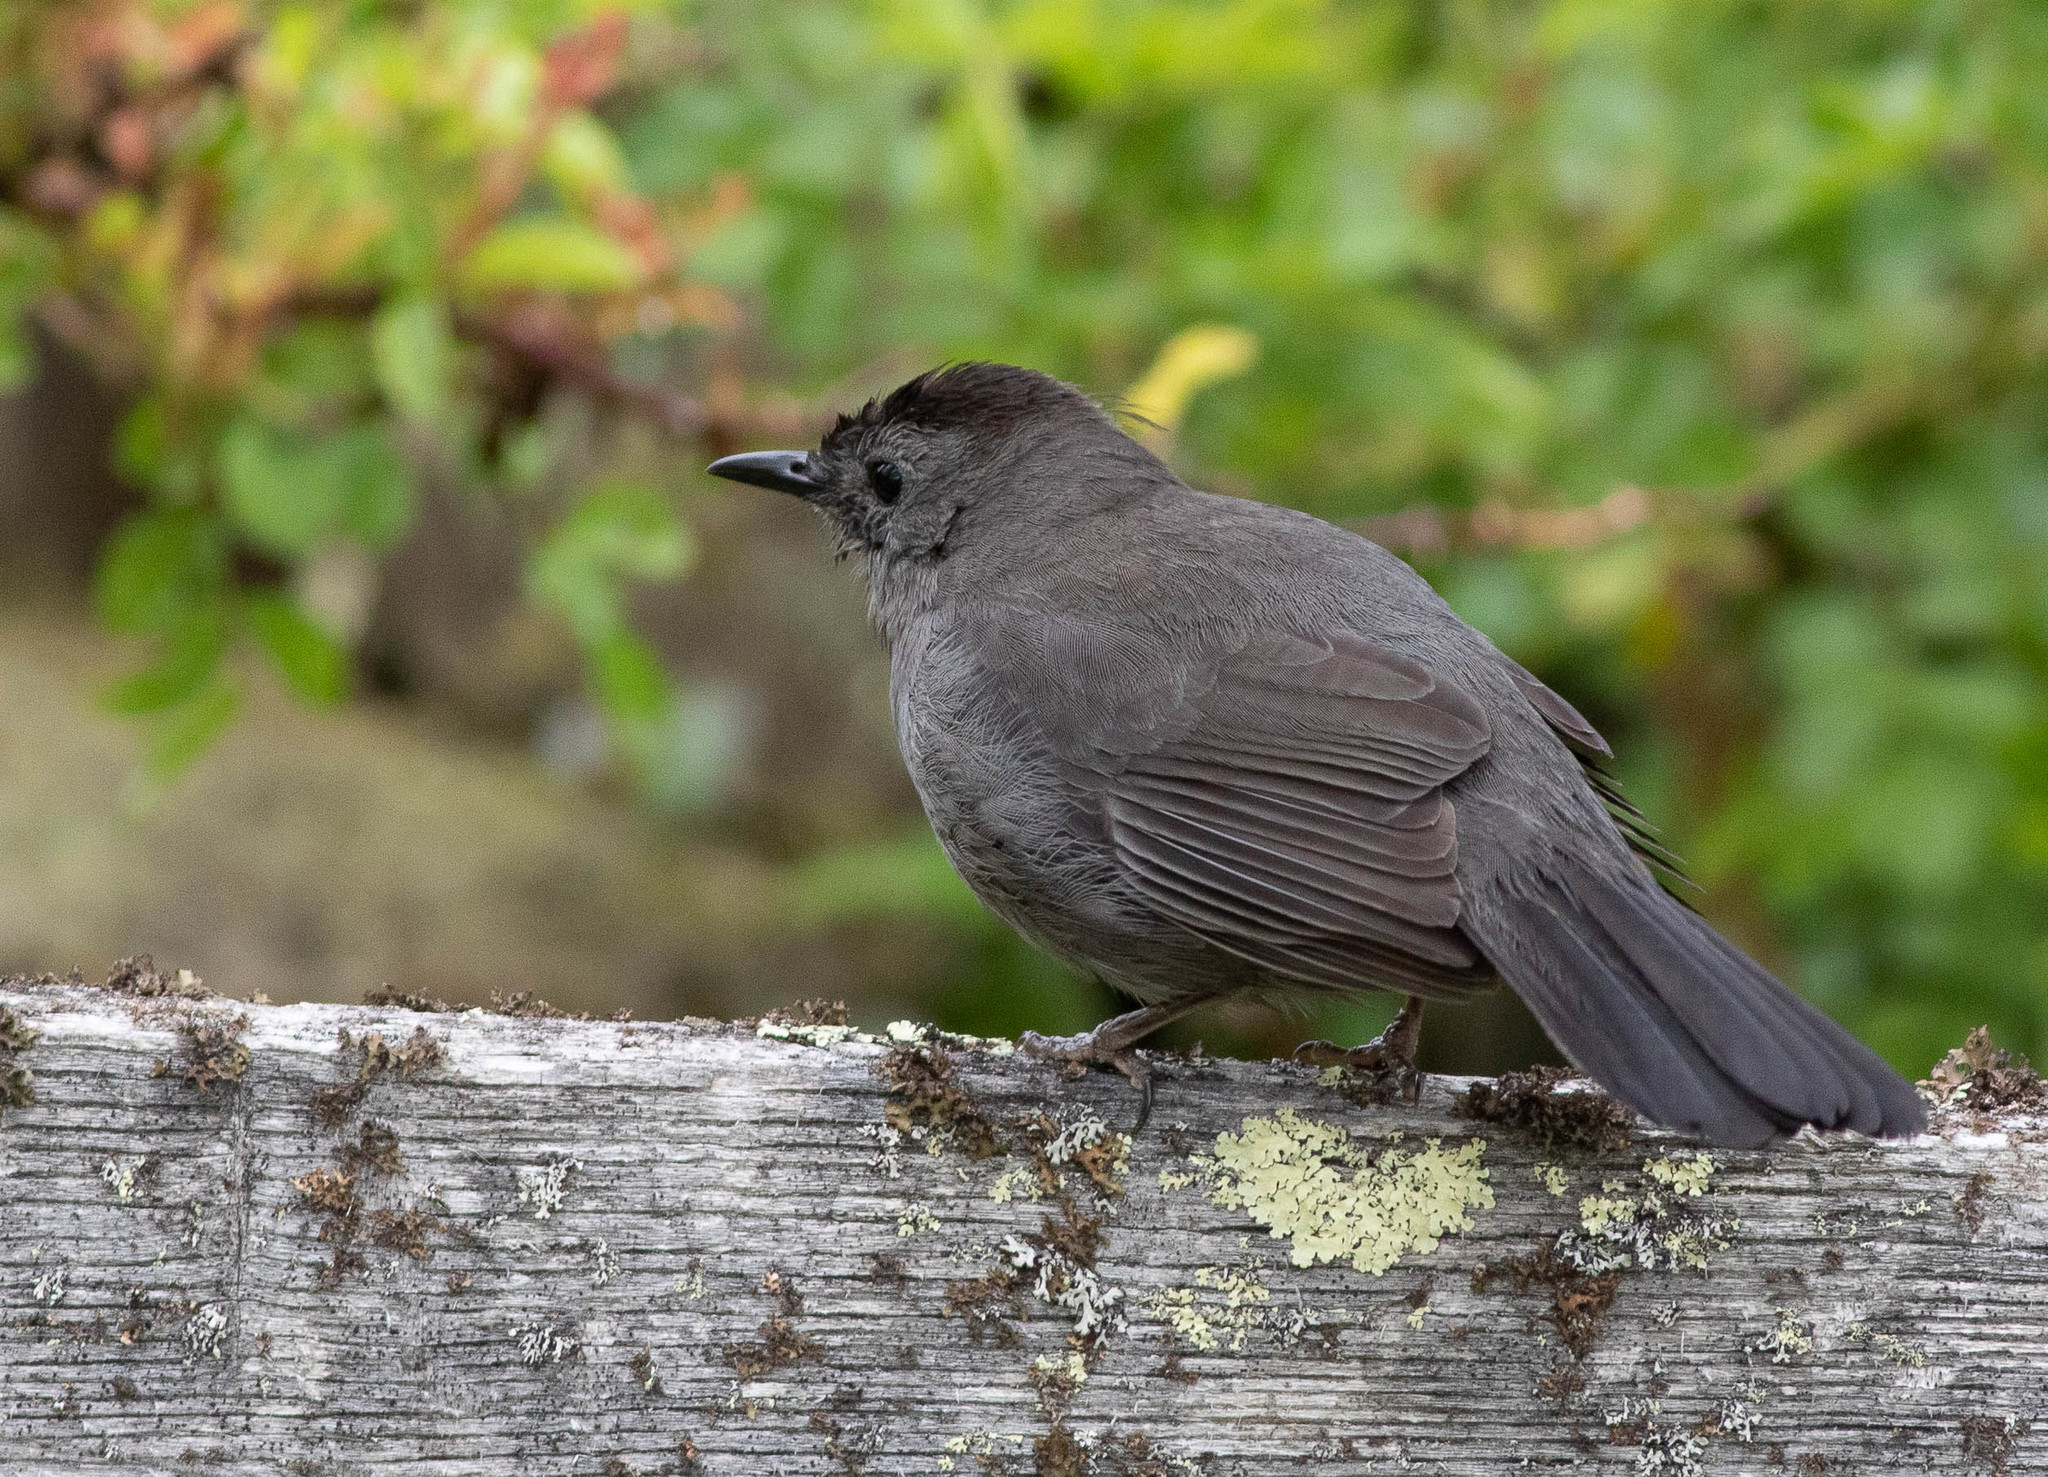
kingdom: Animalia
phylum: Chordata
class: Aves
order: Passeriformes
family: Mimidae
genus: Dumetella
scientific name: Dumetella carolinensis
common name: Gray catbird
